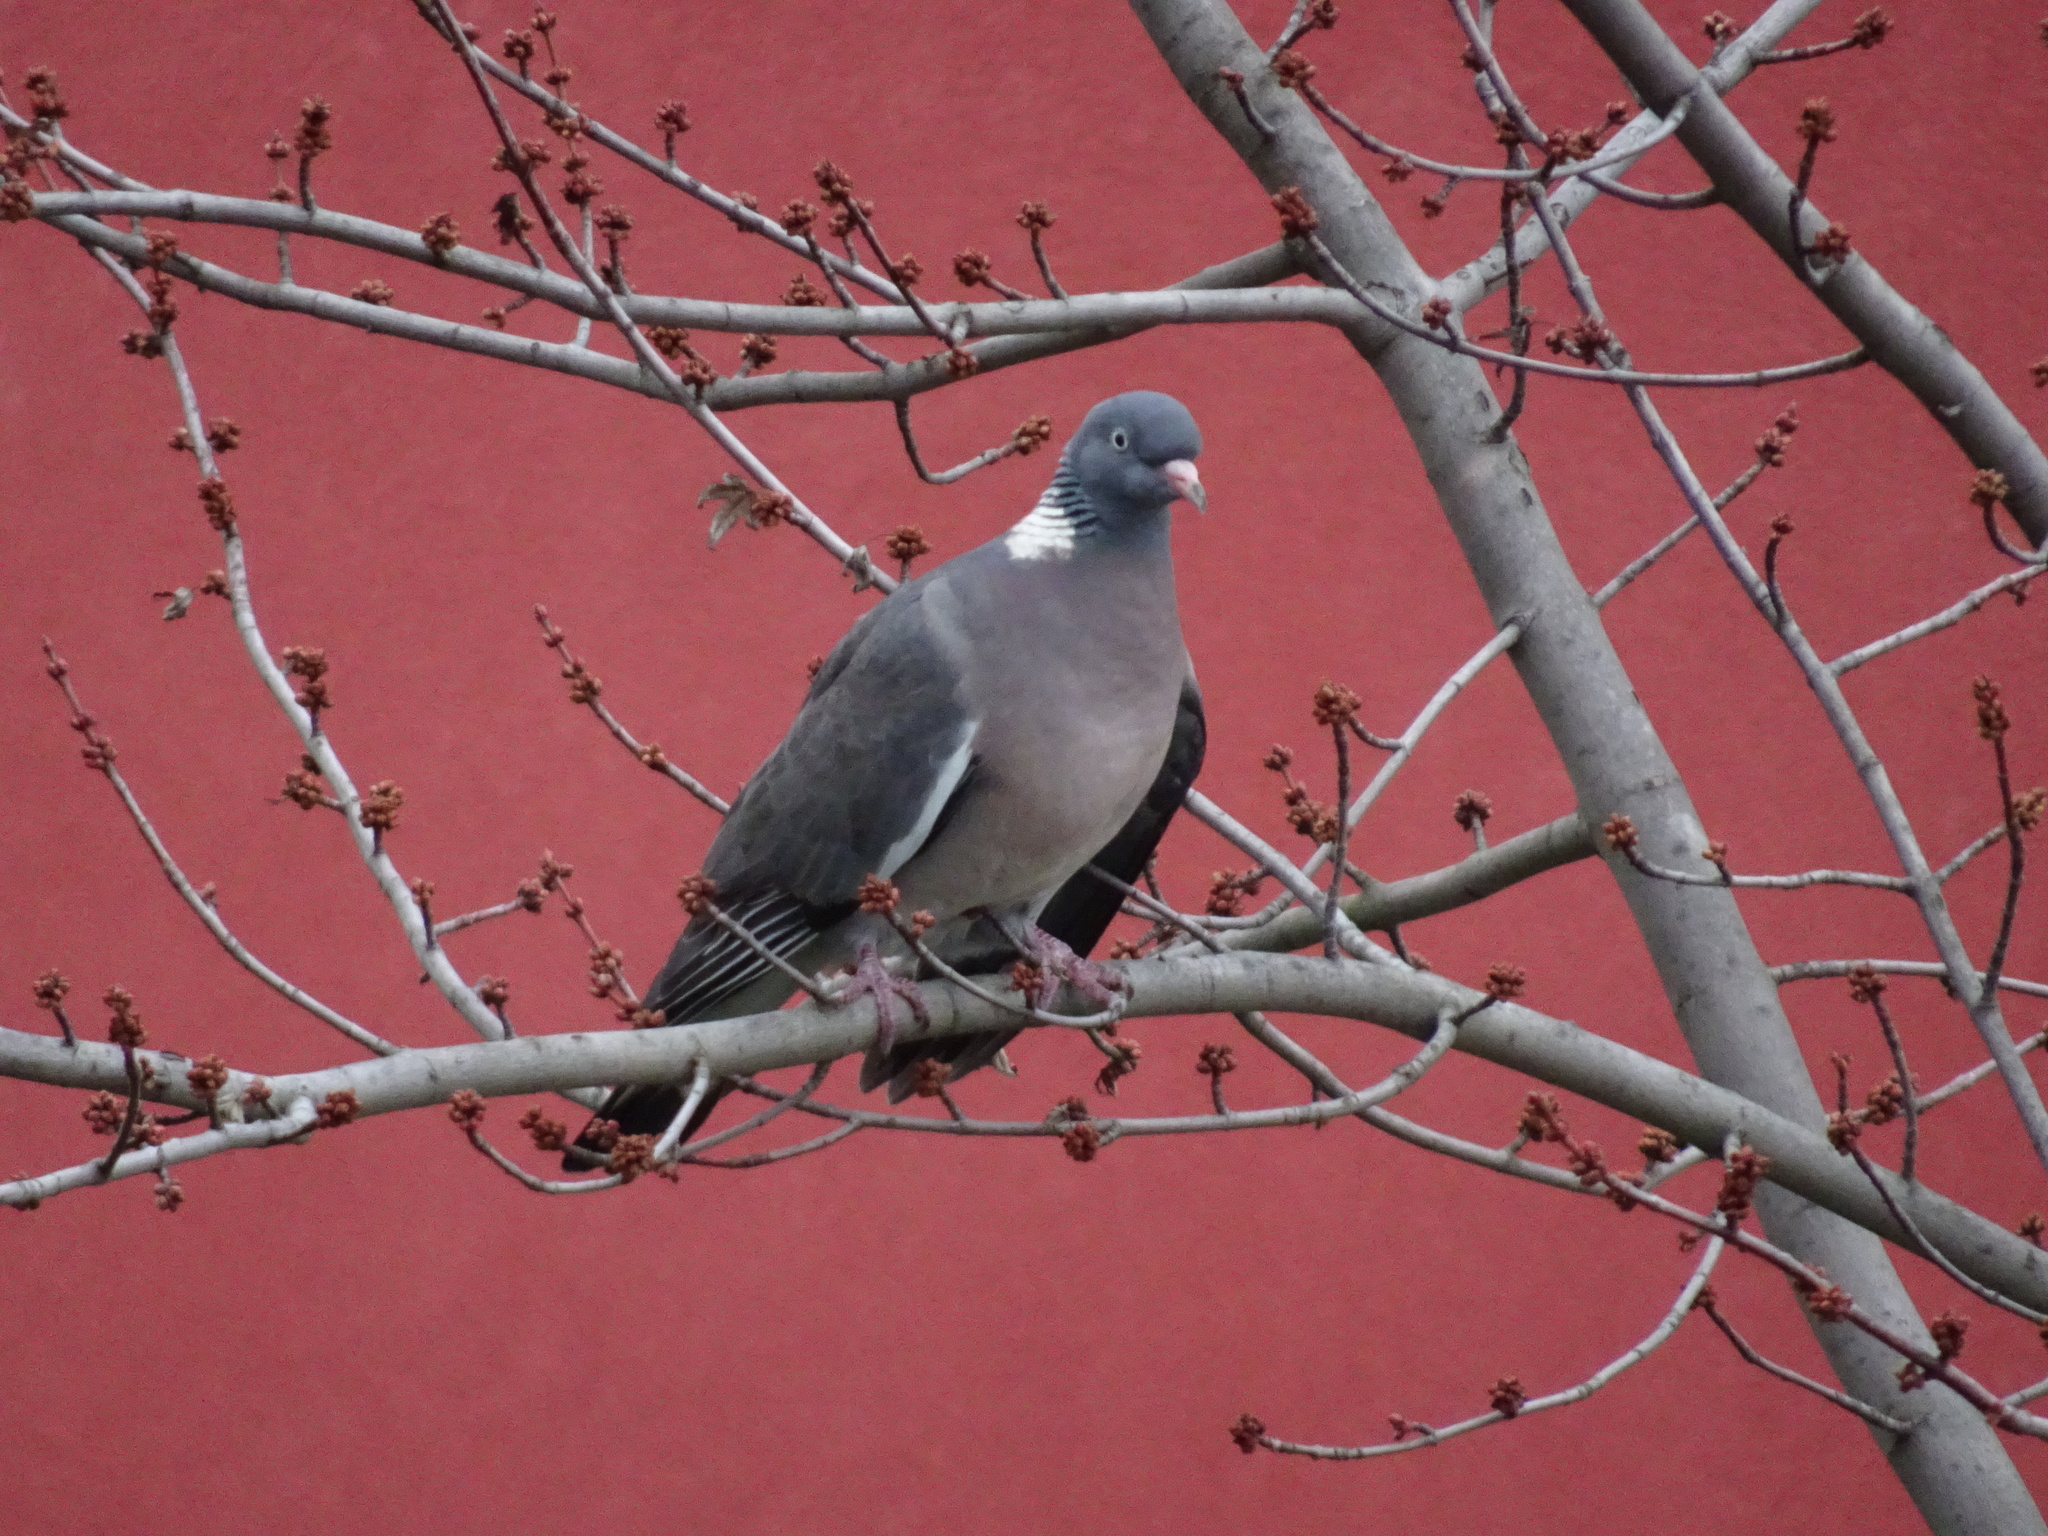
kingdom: Animalia
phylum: Chordata
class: Aves
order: Columbiformes
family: Columbidae
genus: Columba
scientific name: Columba palumbus
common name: Common wood pigeon
